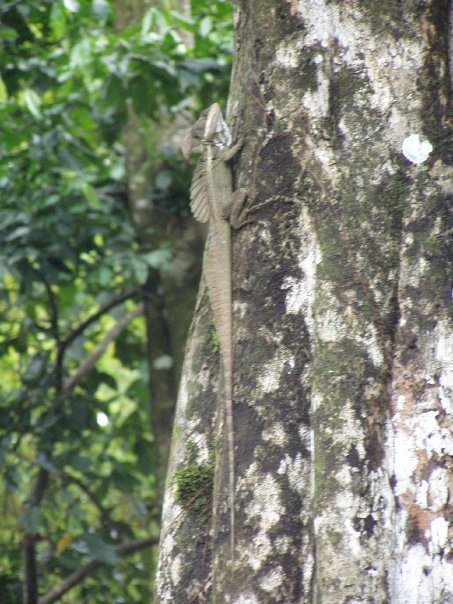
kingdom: Animalia
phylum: Chordata
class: Squamata
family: Corytophanidae
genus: Basiliscus
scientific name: Basiliscus basiliscus
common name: Common basilisk
